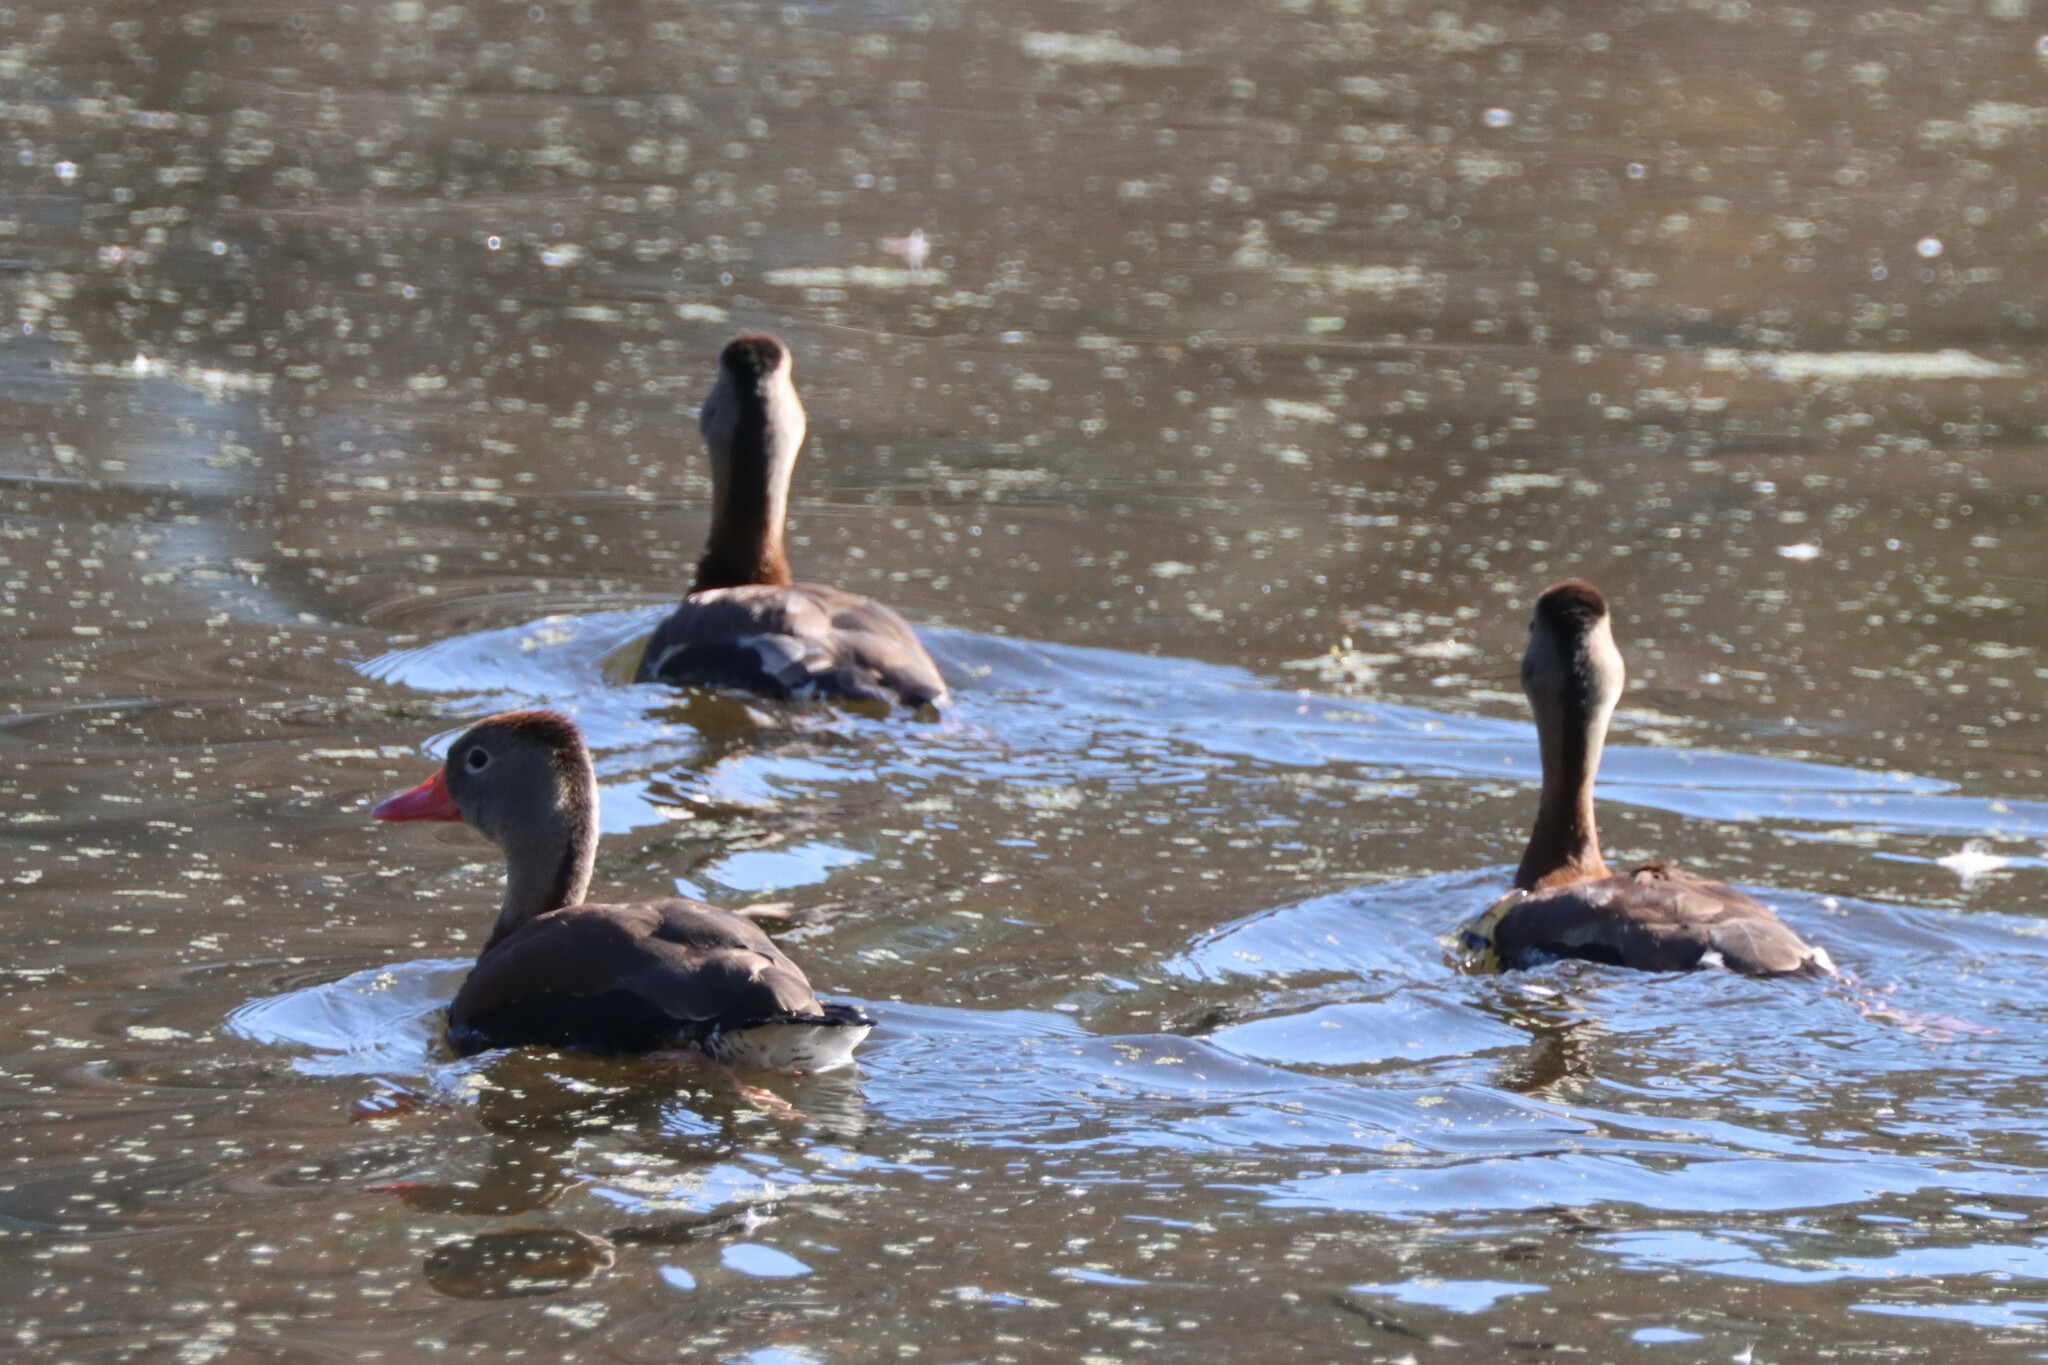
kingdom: Animalia
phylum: Chordata
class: Aves
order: Anseriformes
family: Anatidae
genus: Dendrocygna
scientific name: Dendrocygna autumnalis
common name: Black-bellied whistling duck
